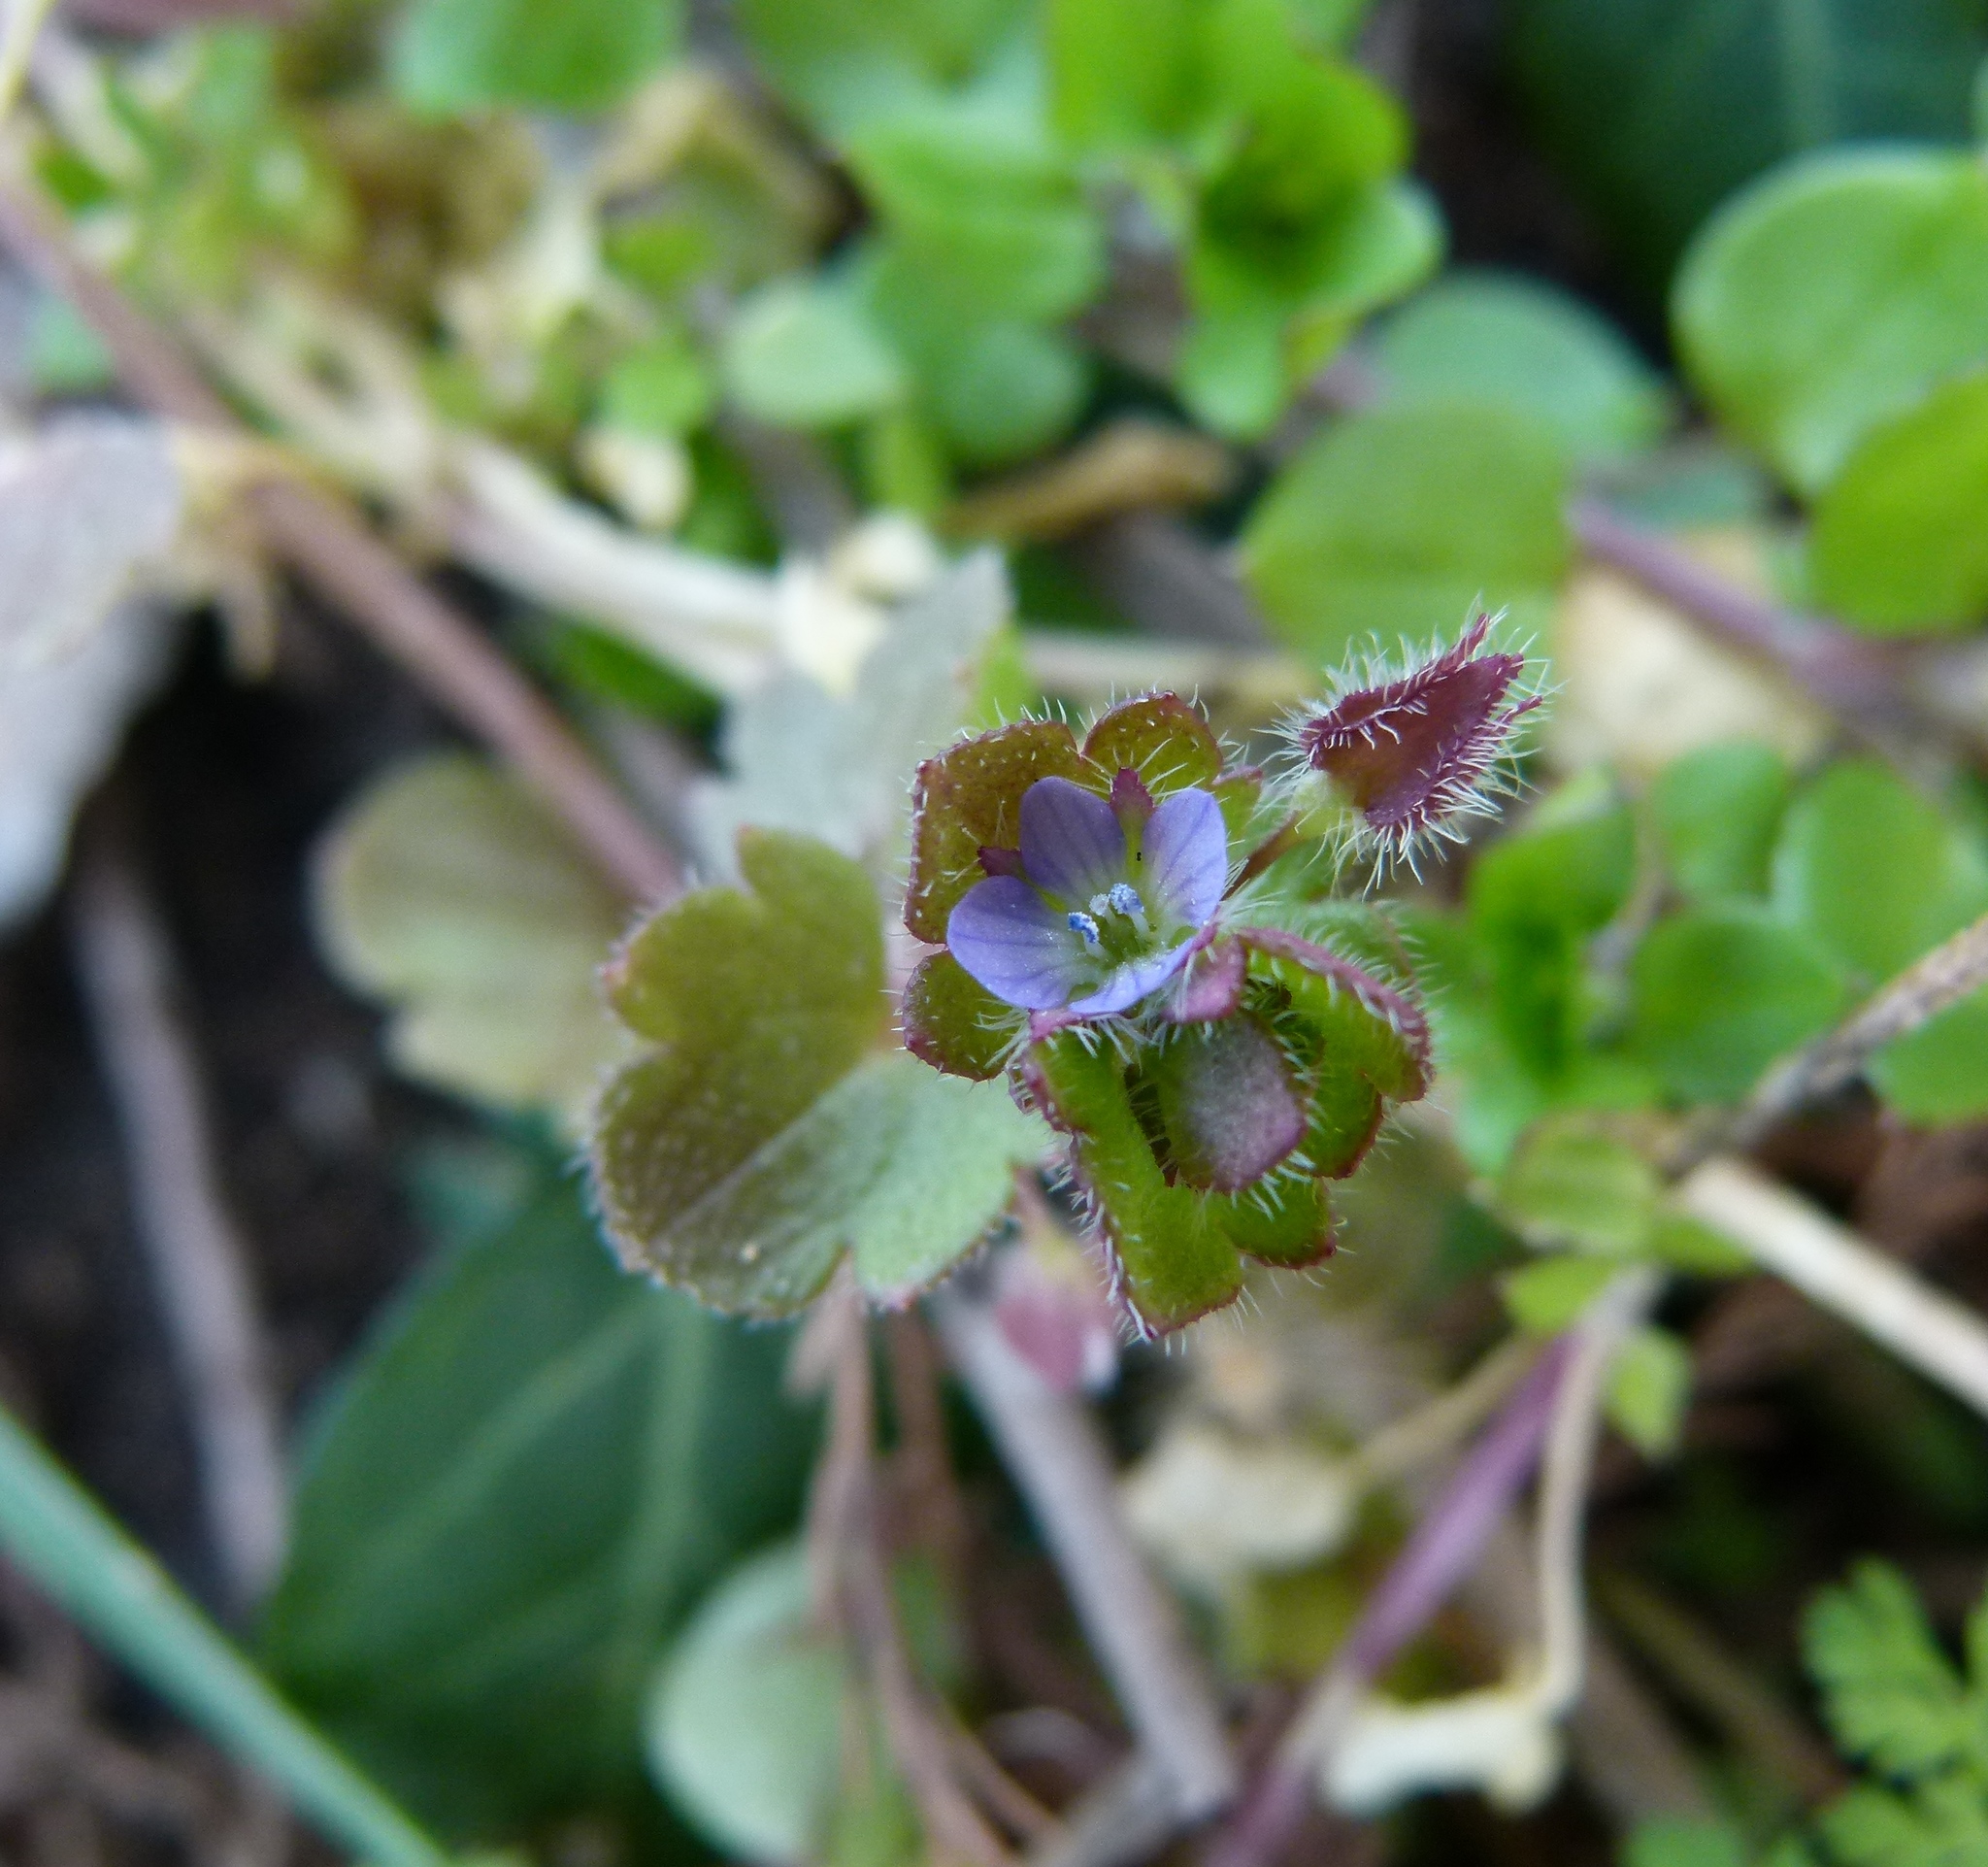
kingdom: Plantae
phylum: Tracheophyta
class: Magnoliopsida
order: Lamiales
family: Plantaginaceae
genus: Veronica
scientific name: Veronica hederifolia
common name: Ivy-leaved speedwell
